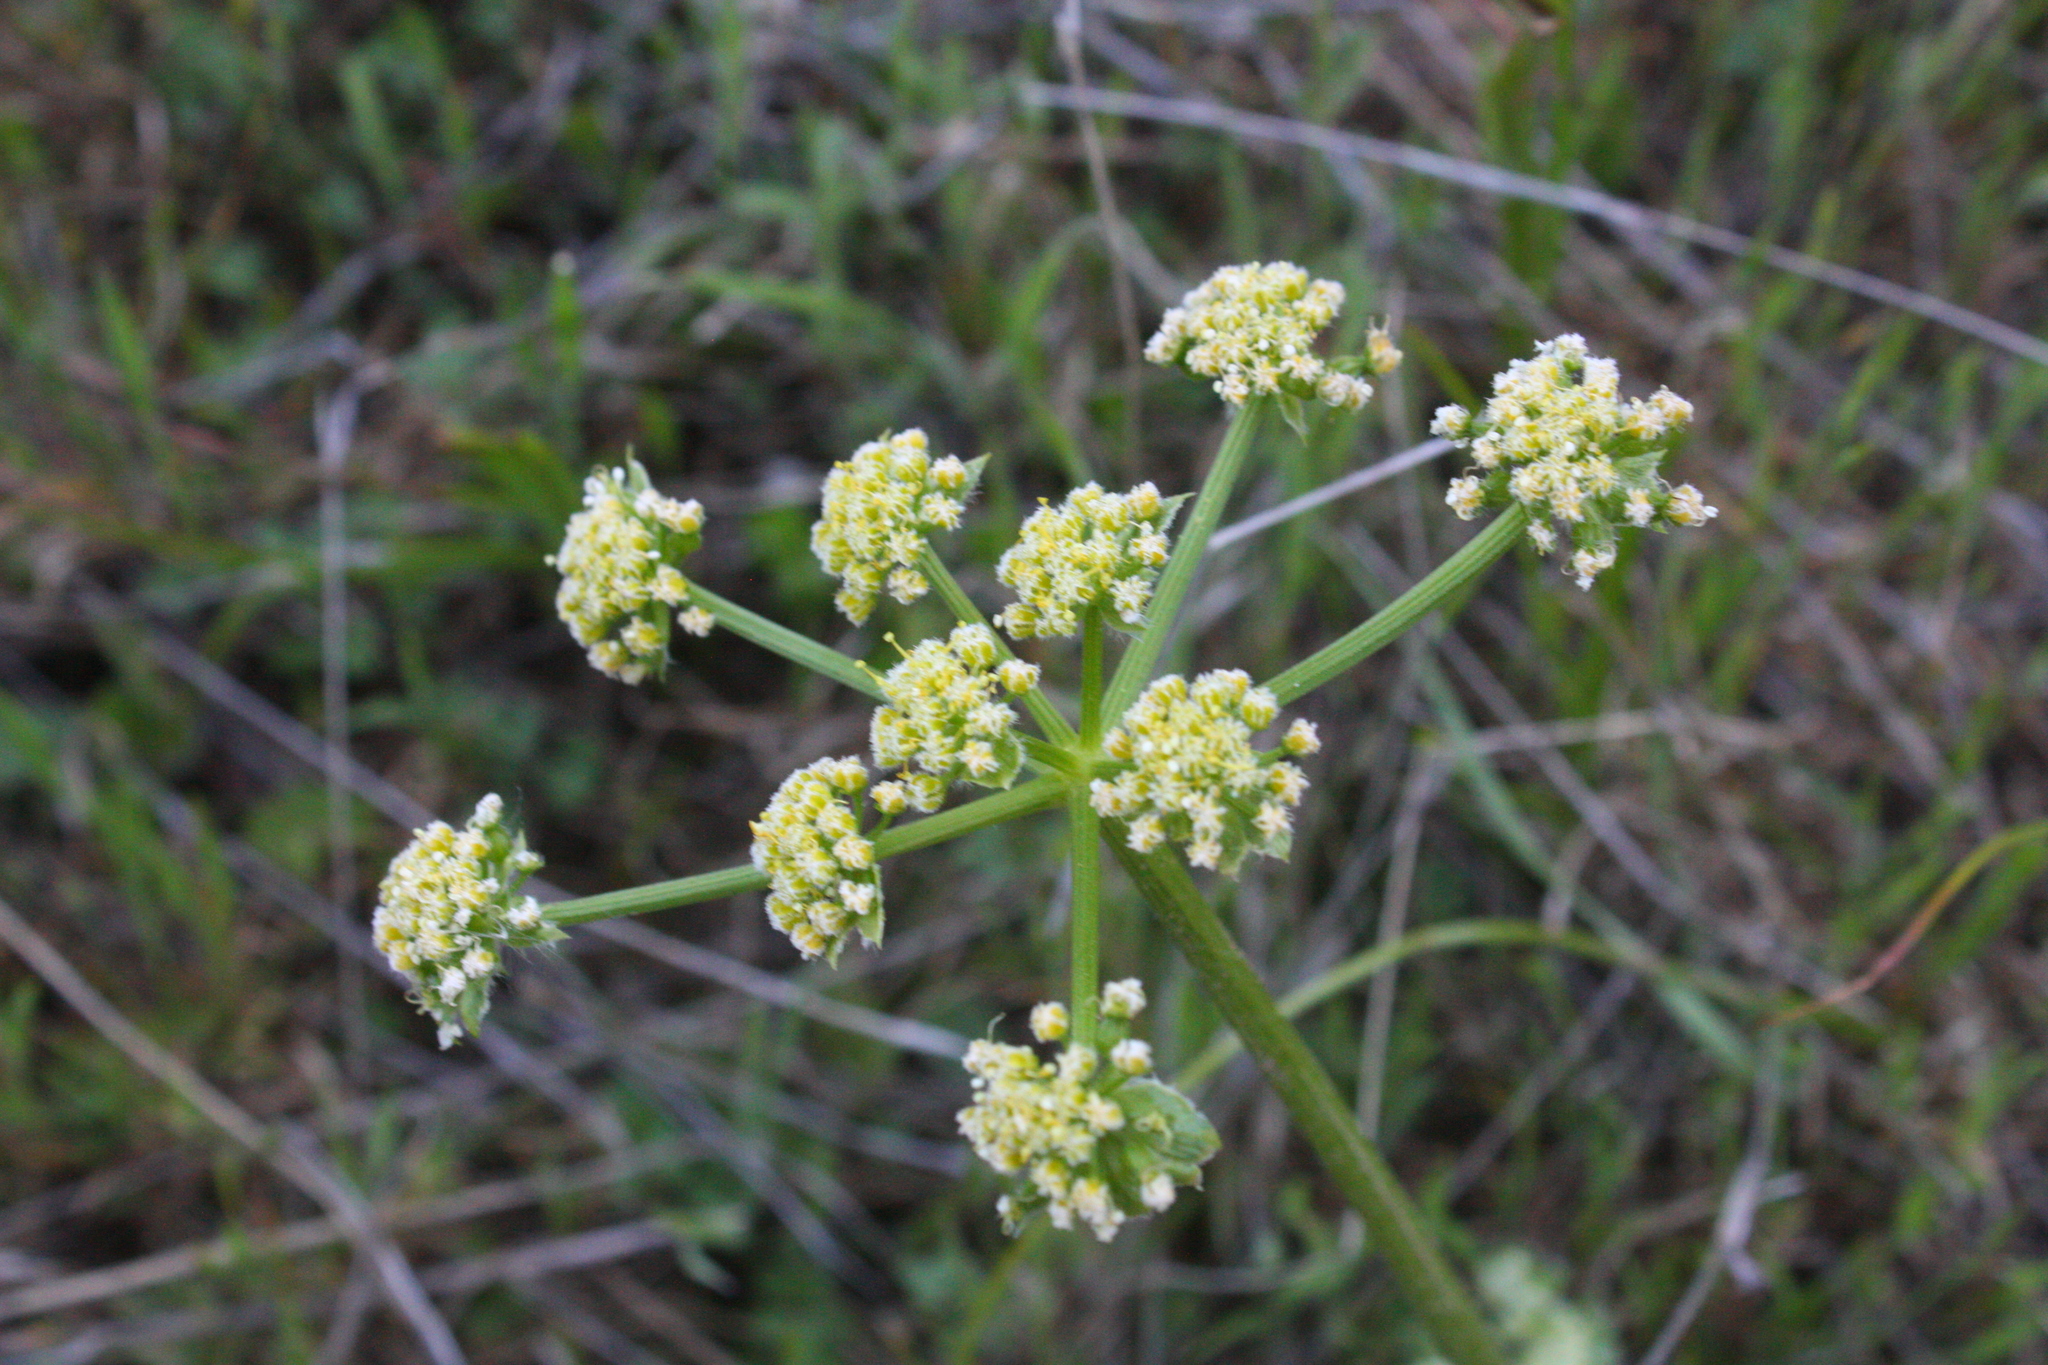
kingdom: Plantae
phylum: Tracheophyta
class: Magnoliopsida
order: Apiales
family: Apiaceae
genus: Lomatium
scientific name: Lomatium dasycarpum
